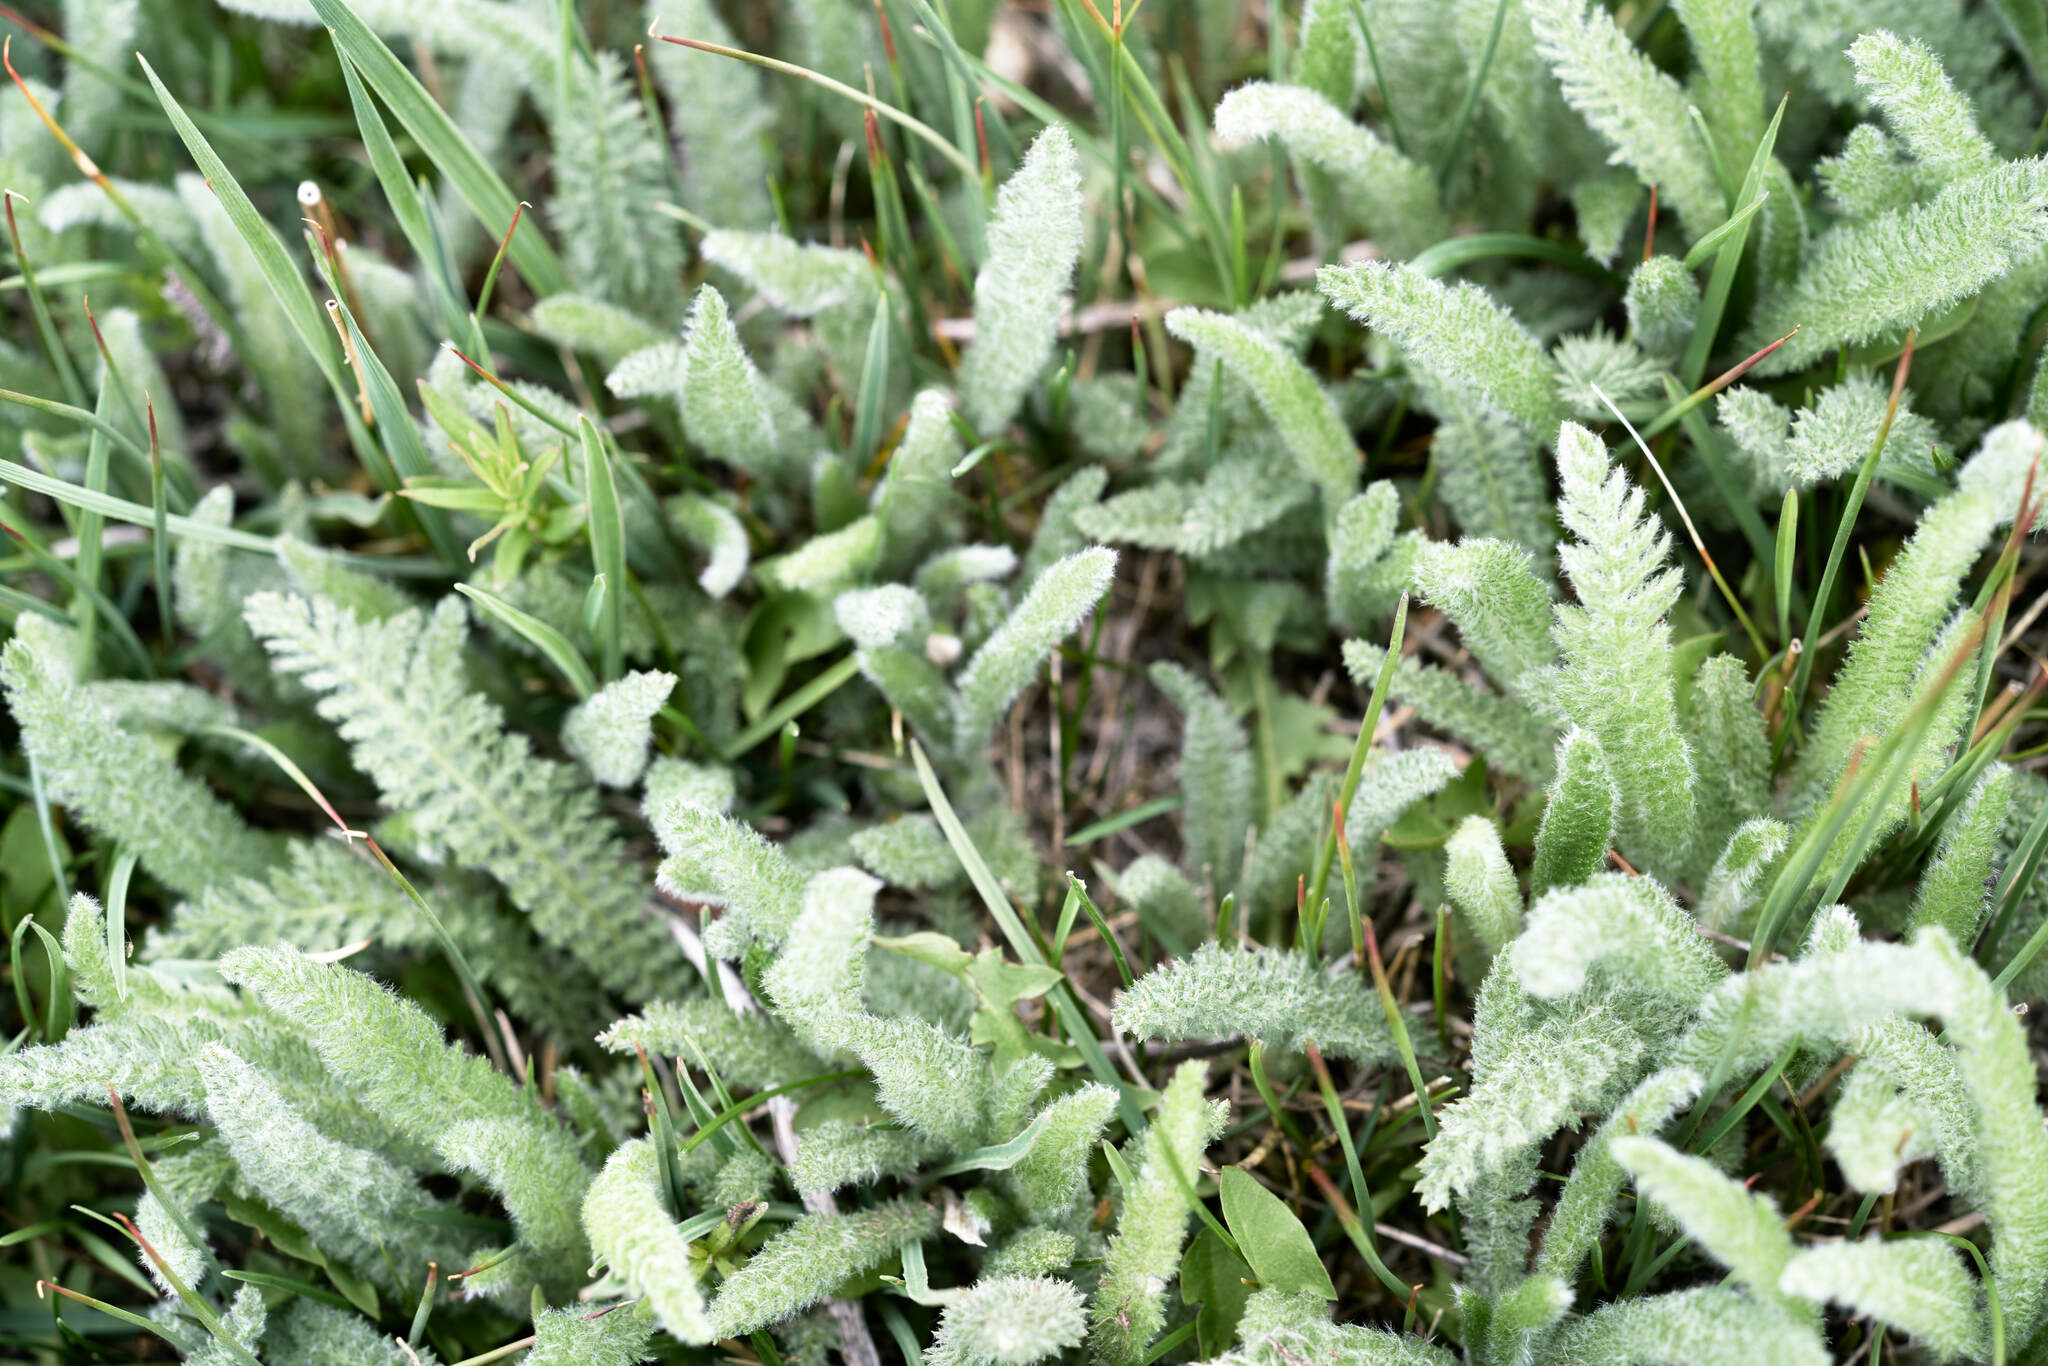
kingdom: Plantae
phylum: Tracheophyta
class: Magnoliopsida
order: Asterales
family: Asteraceae
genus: Achillea
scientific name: Achillea millefolium
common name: Yarrow
